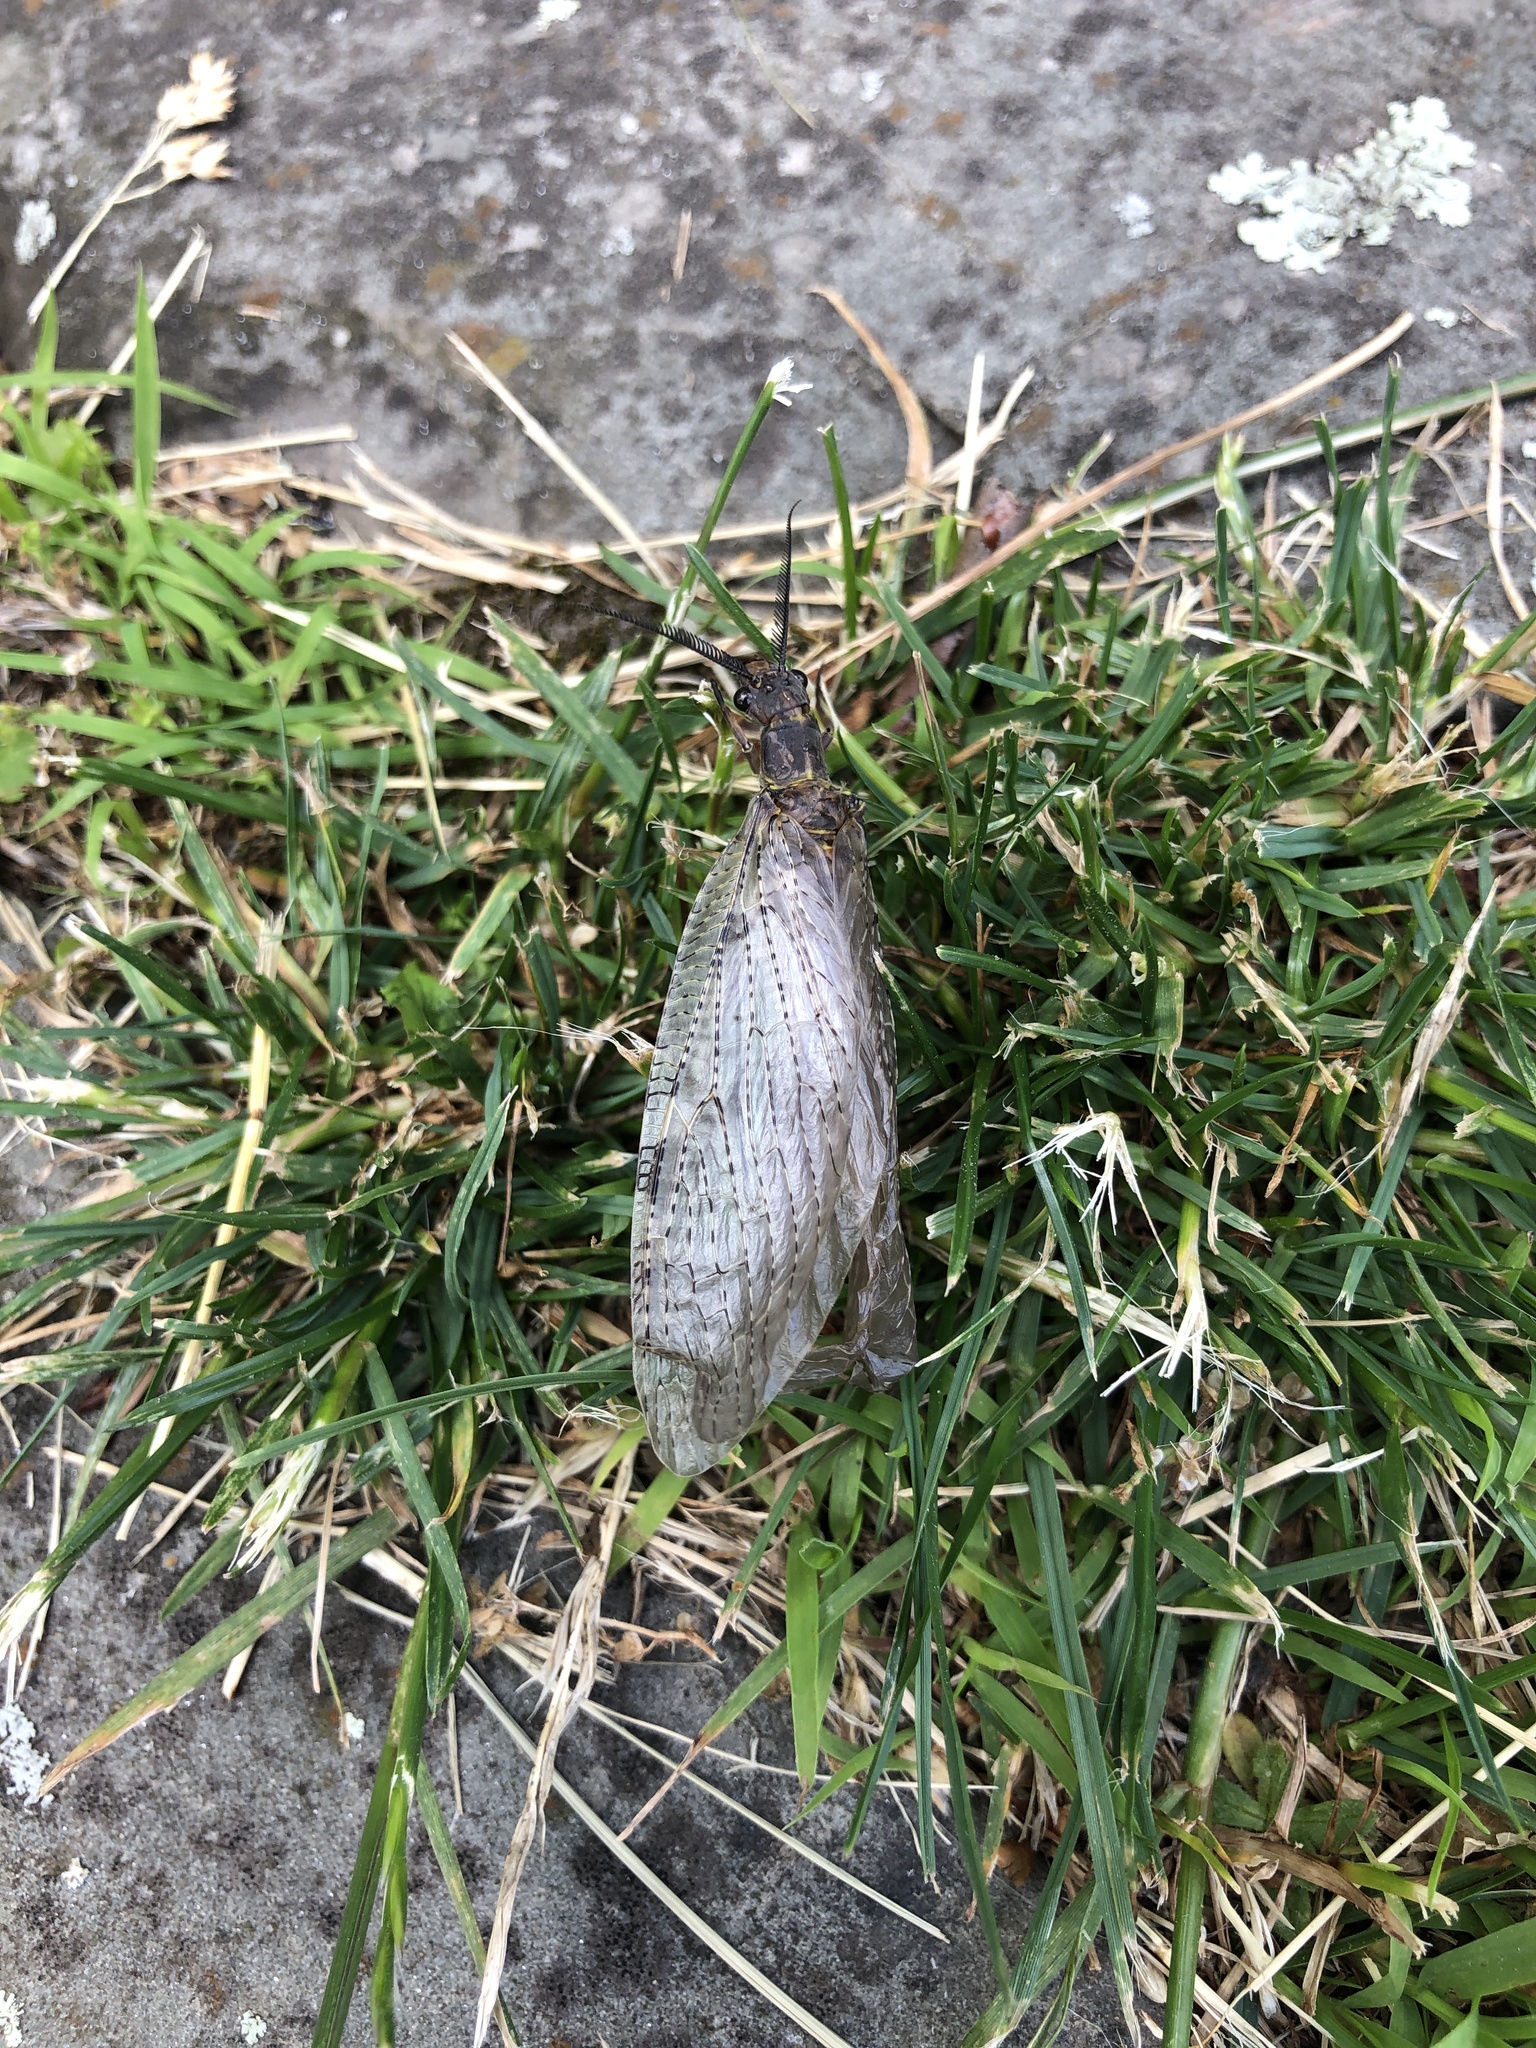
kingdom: Animalia
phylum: Arthropoda
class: Insecta
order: Megaloptera
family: Corydalidae
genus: Chauliodes
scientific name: Chauliodes pectinicornis
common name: Summer fishfly
